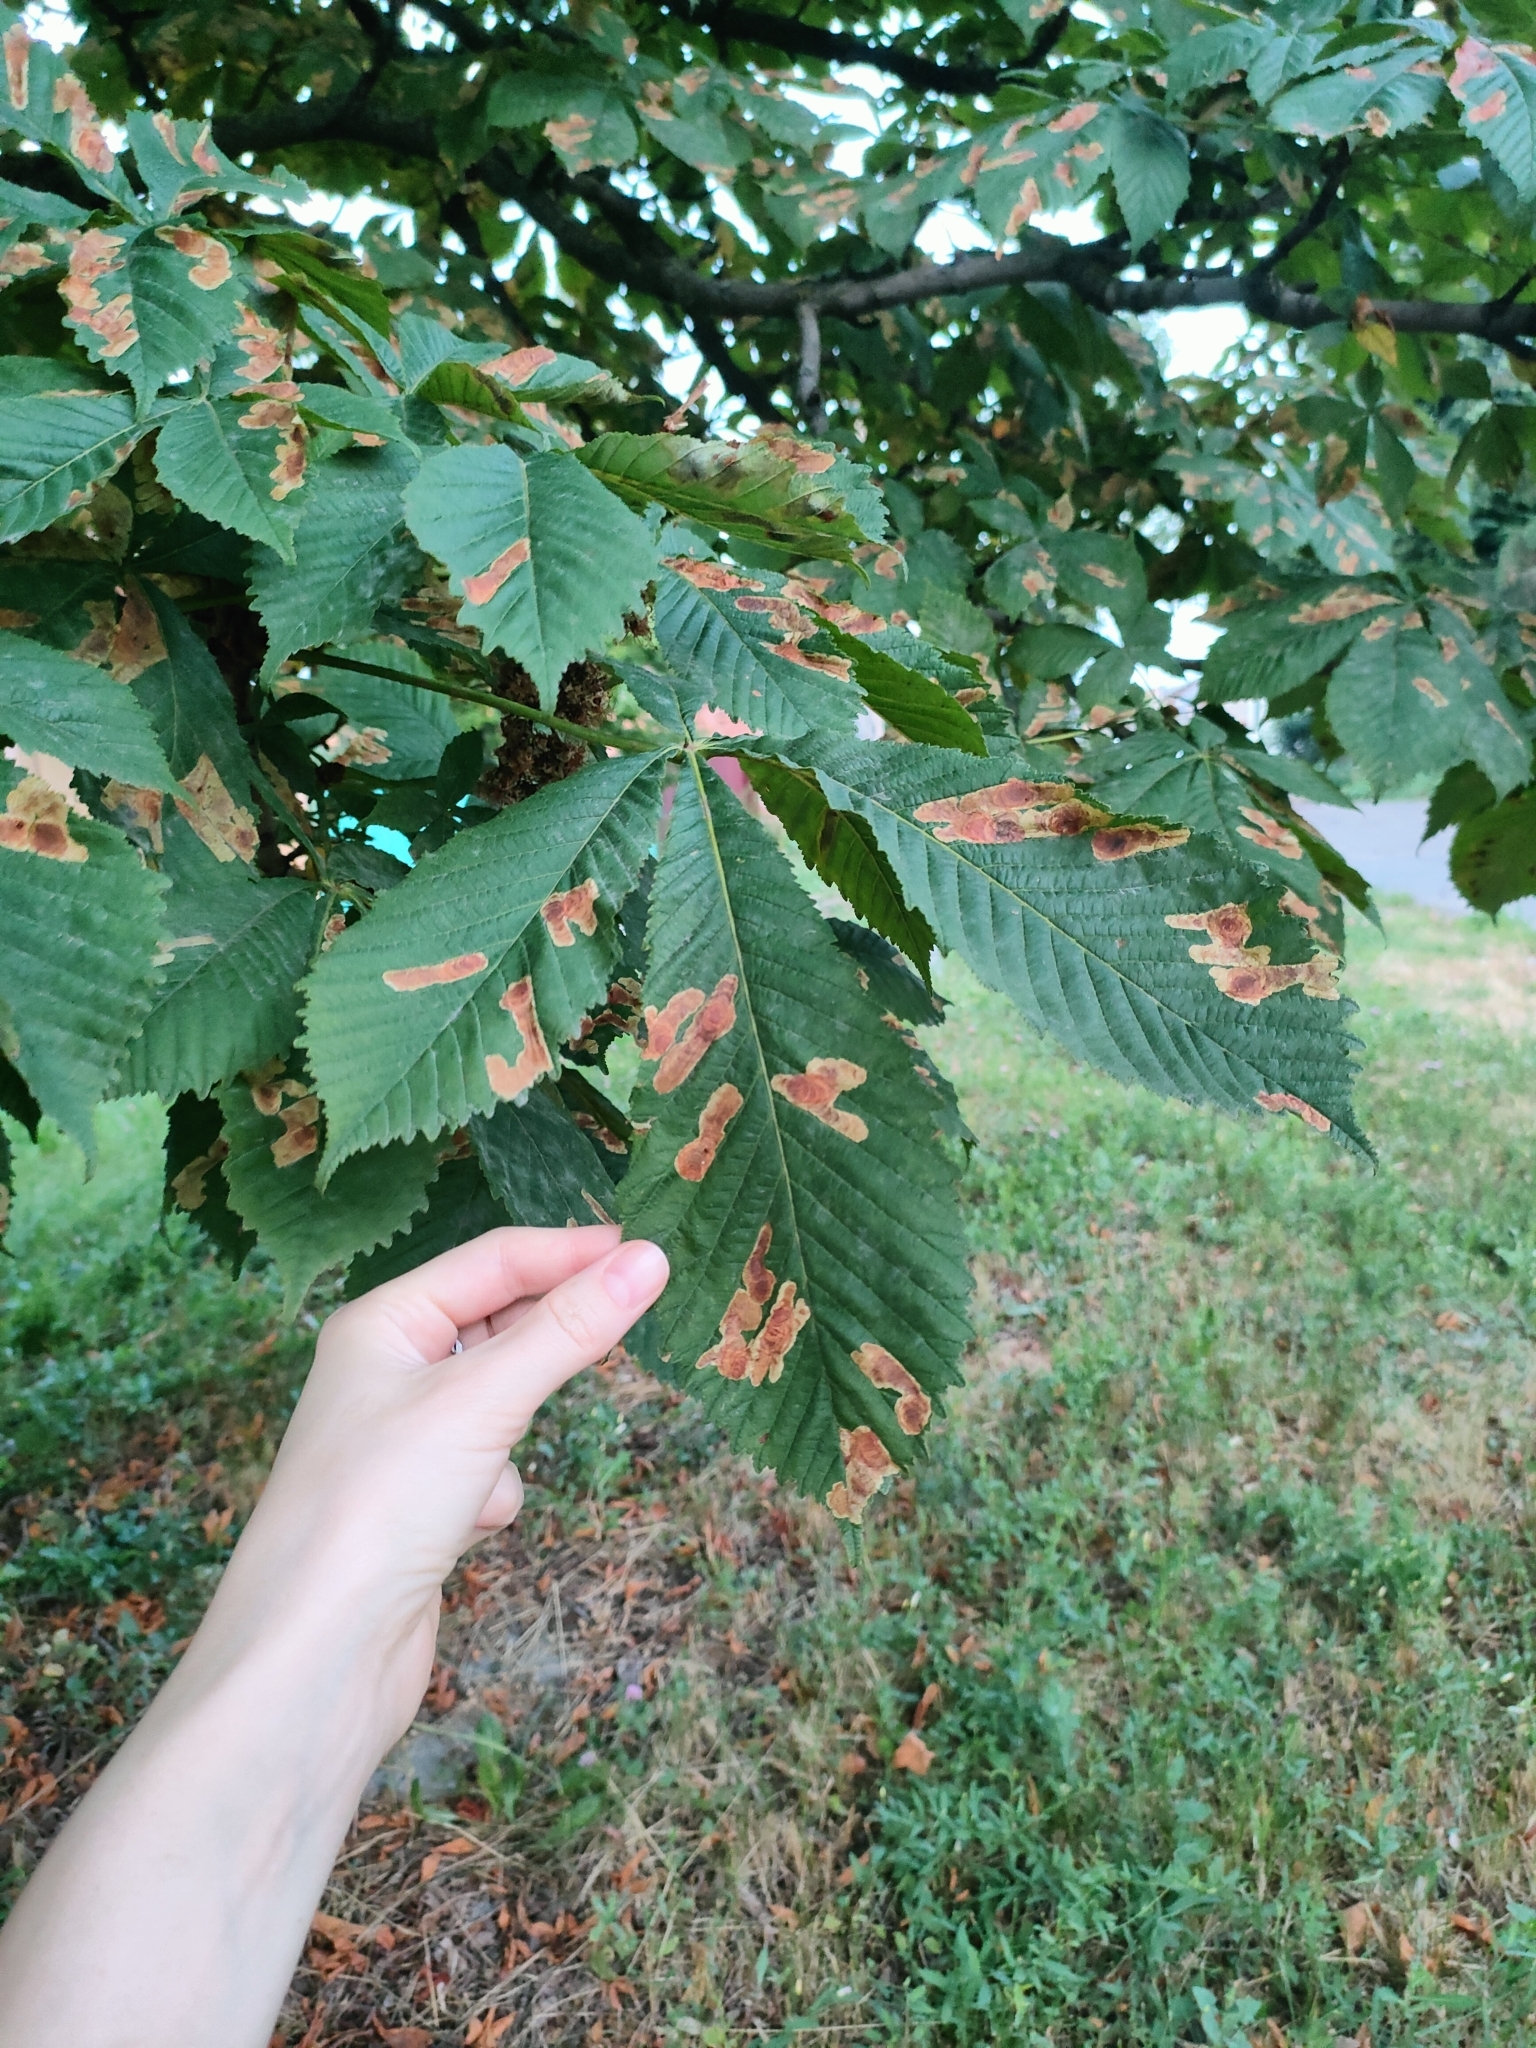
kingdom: Animalia
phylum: Arthropoda
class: Insecta
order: Lepidoptera
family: Gracillariidae
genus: Cameraria
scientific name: Cameraria ohridella
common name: Horse-chestnut leaf-miner
